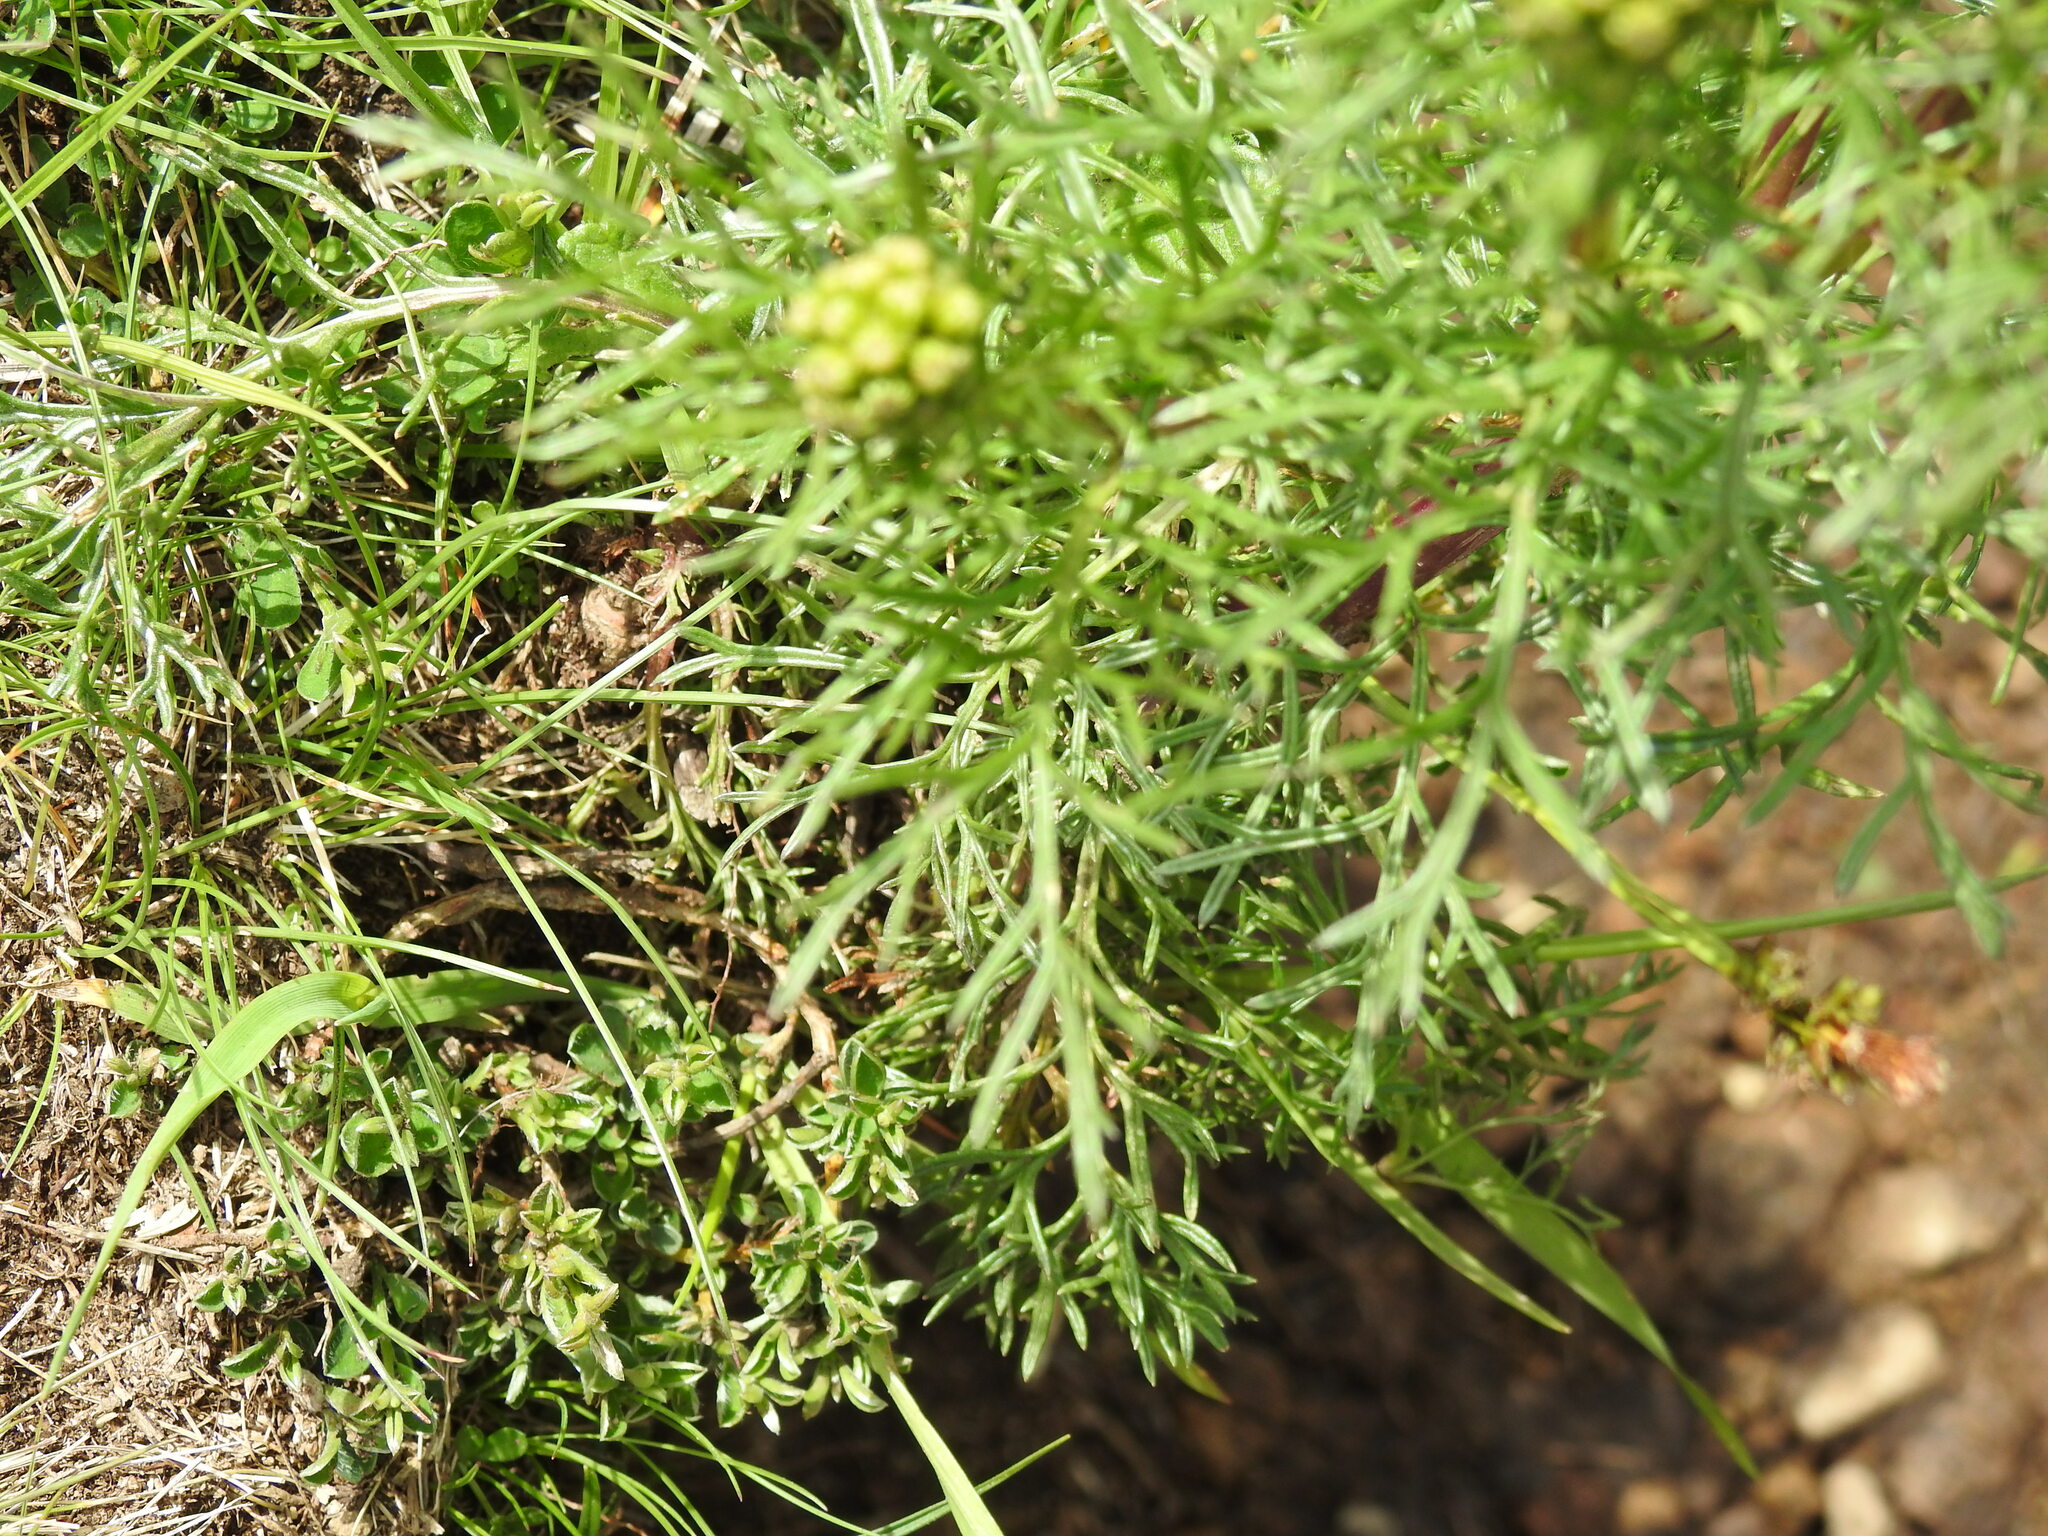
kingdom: Plantae
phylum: Tracheophyta
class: Magnoliopsida
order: Asterales
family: Asteraceae
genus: Jacobaea
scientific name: Jacobaea adonidifolia
